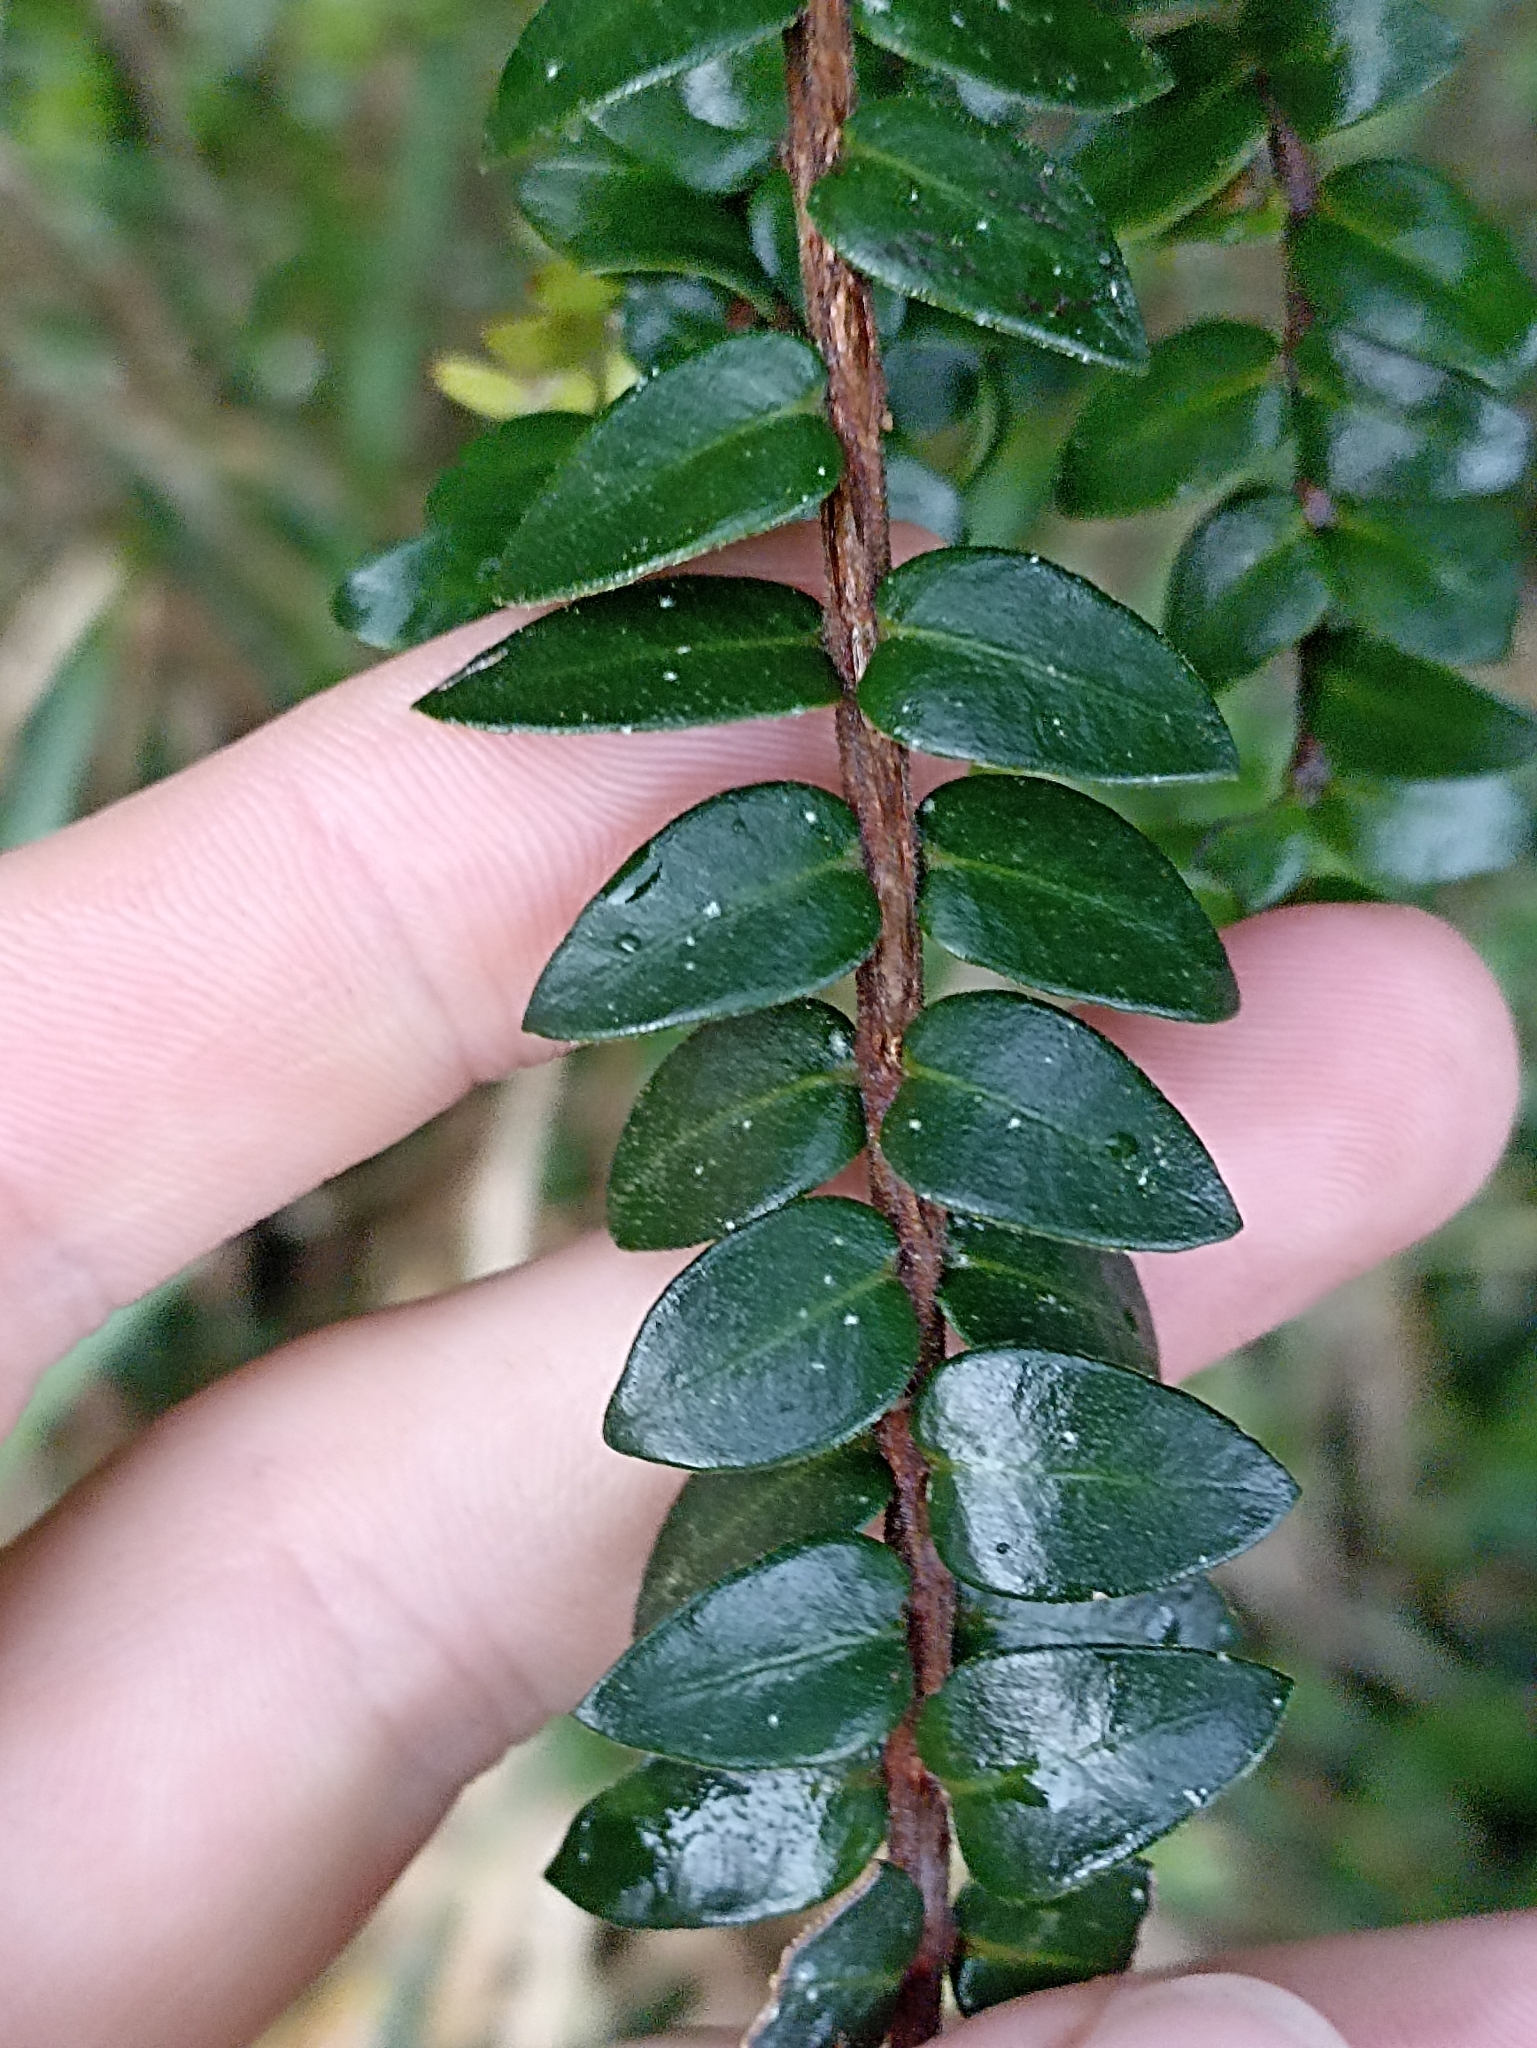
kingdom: Plantae
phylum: Tracheophyta
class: Magnoliopsida
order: Myrtales
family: Myrtaceae
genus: Metrosideros
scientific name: Metrosideros diffusa
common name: Small ratavine
